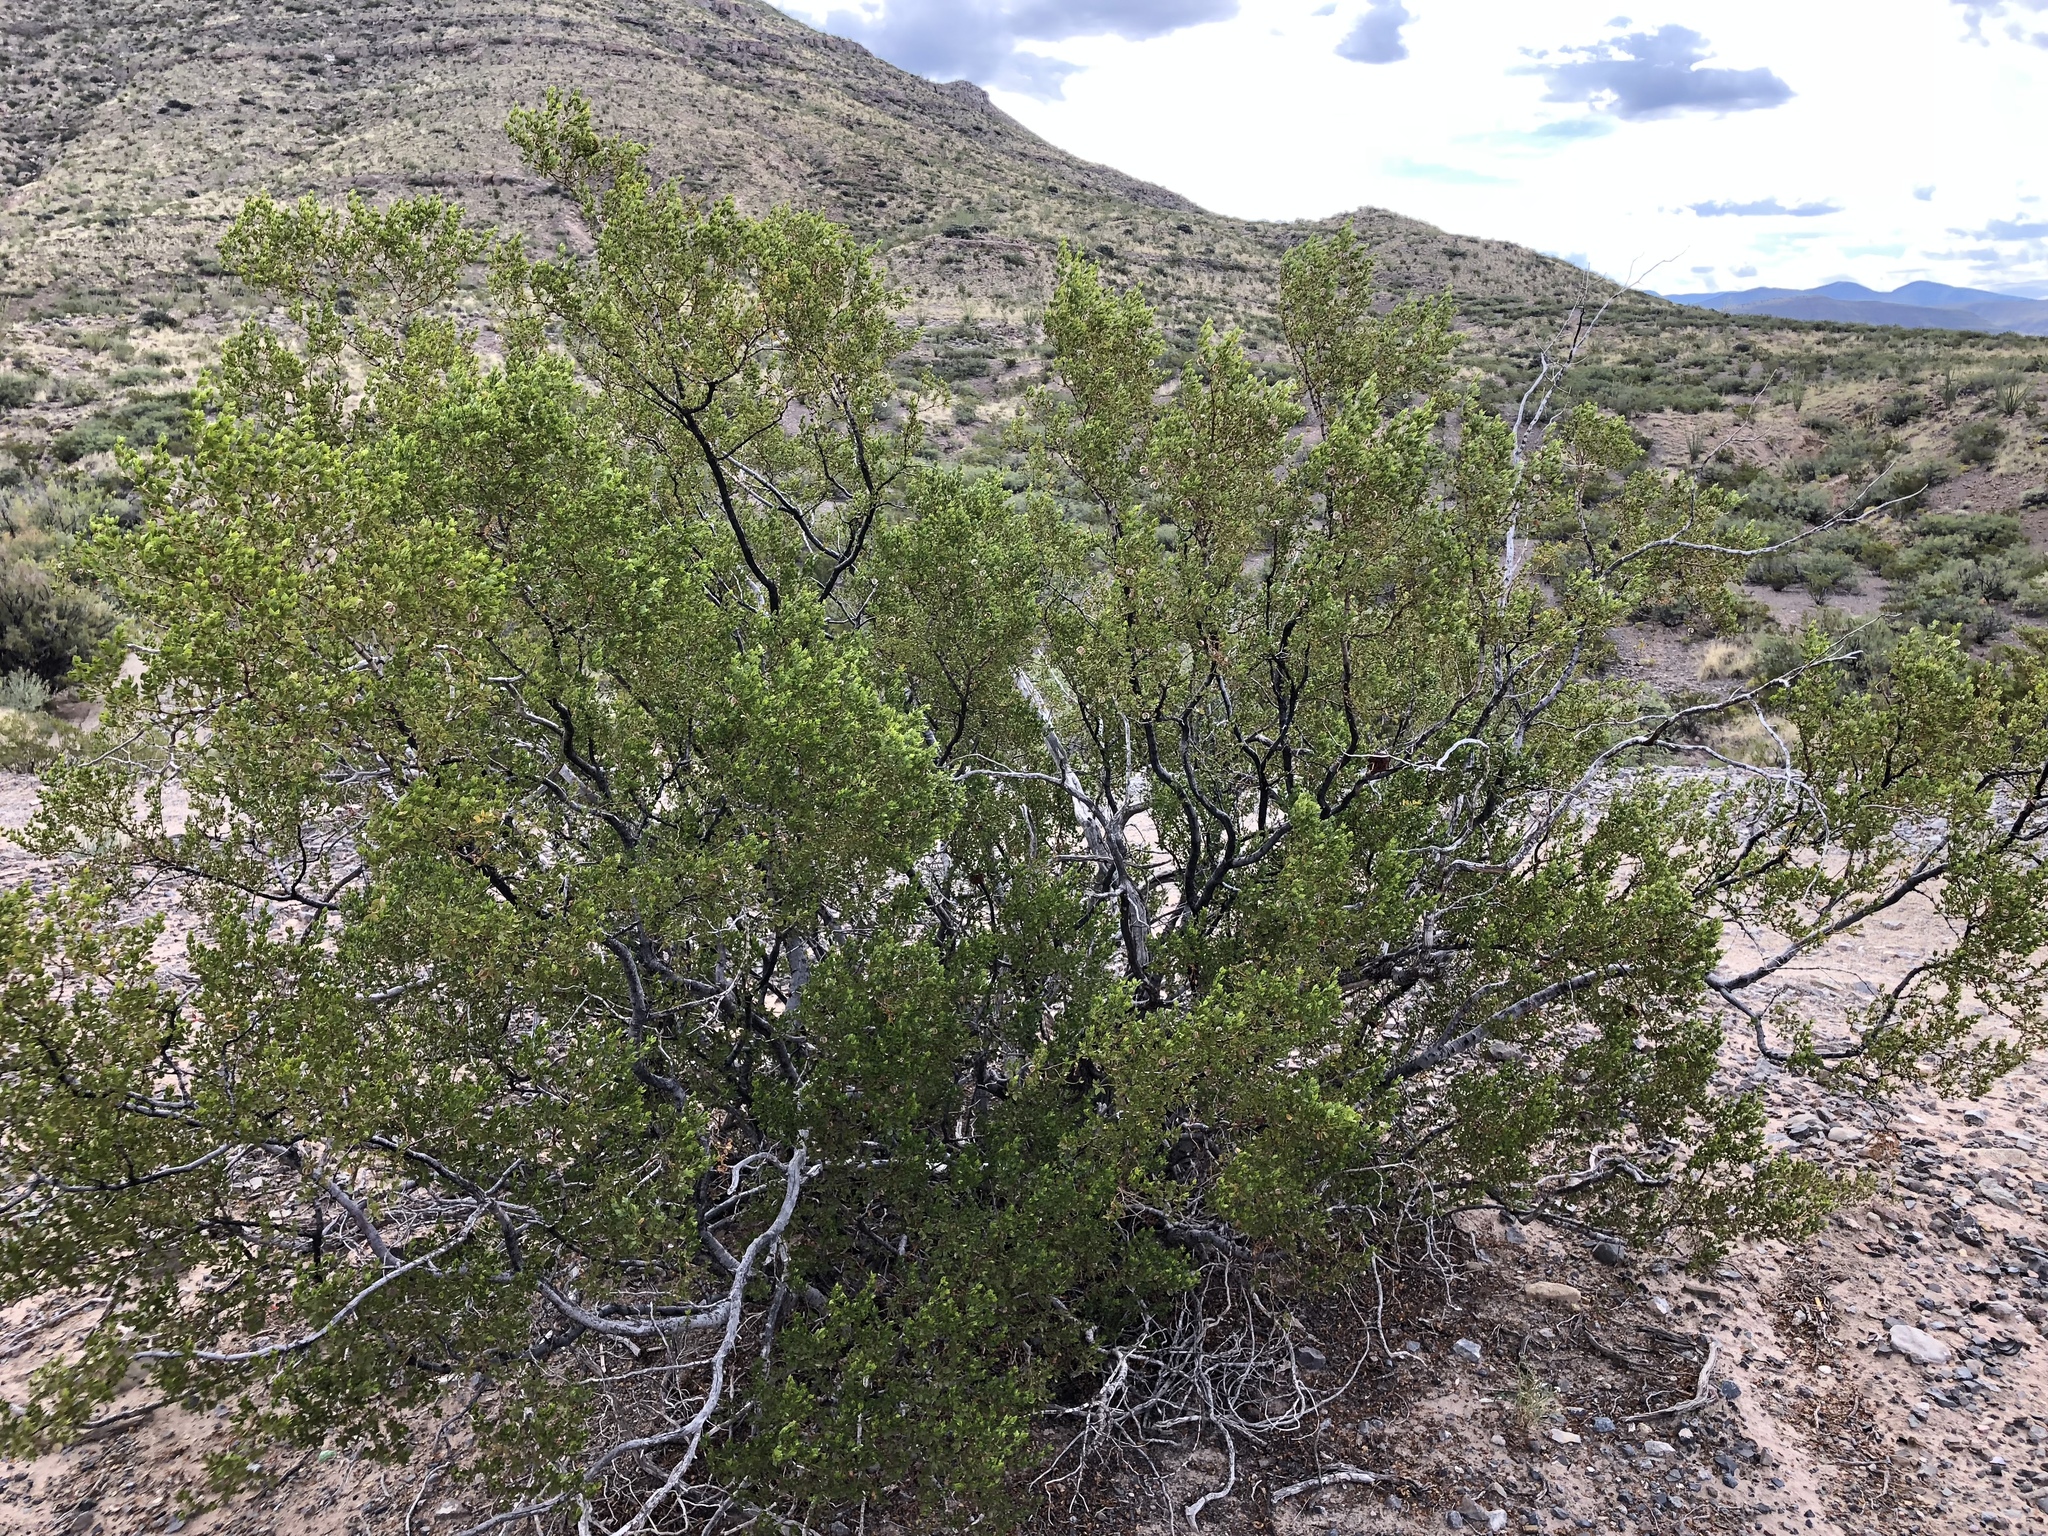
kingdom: Plantae
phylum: Tracheophyta
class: Magnoliopsida
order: Zygophyllales
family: Zygophyllaceae
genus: Larrea
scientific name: Larrea tridentata
